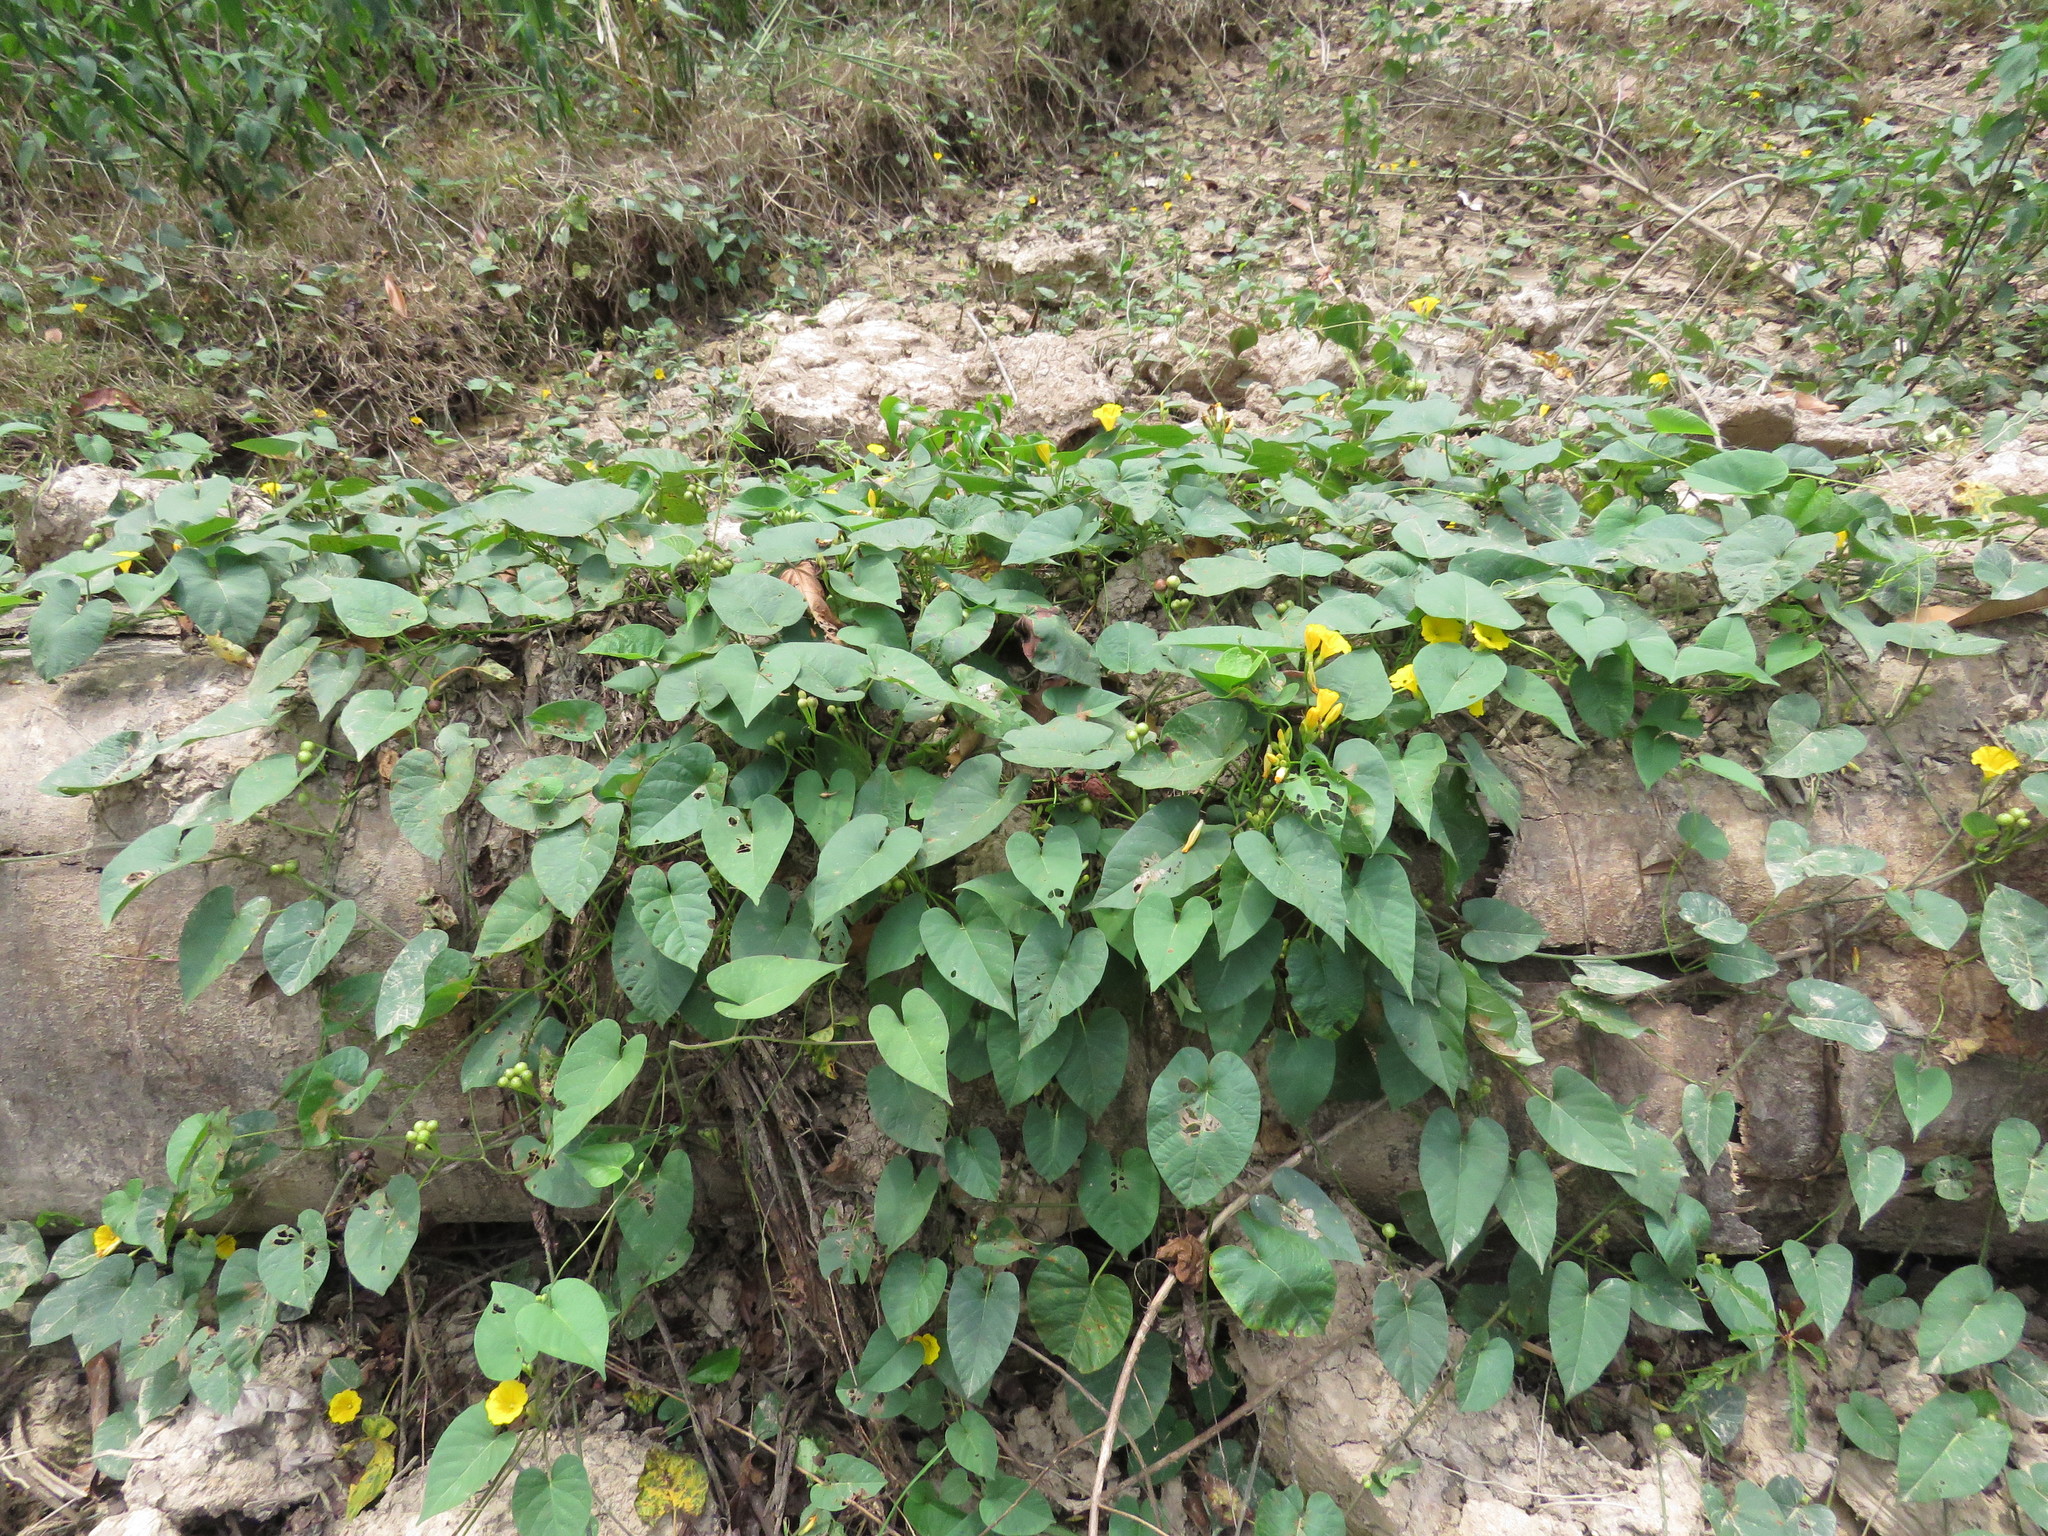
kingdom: Plantae
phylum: Tracheophyta
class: Magnoliopsida
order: Solanales
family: Convolvulaceae
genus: Camonea
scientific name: Camonea umbellata
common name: Hogvine
